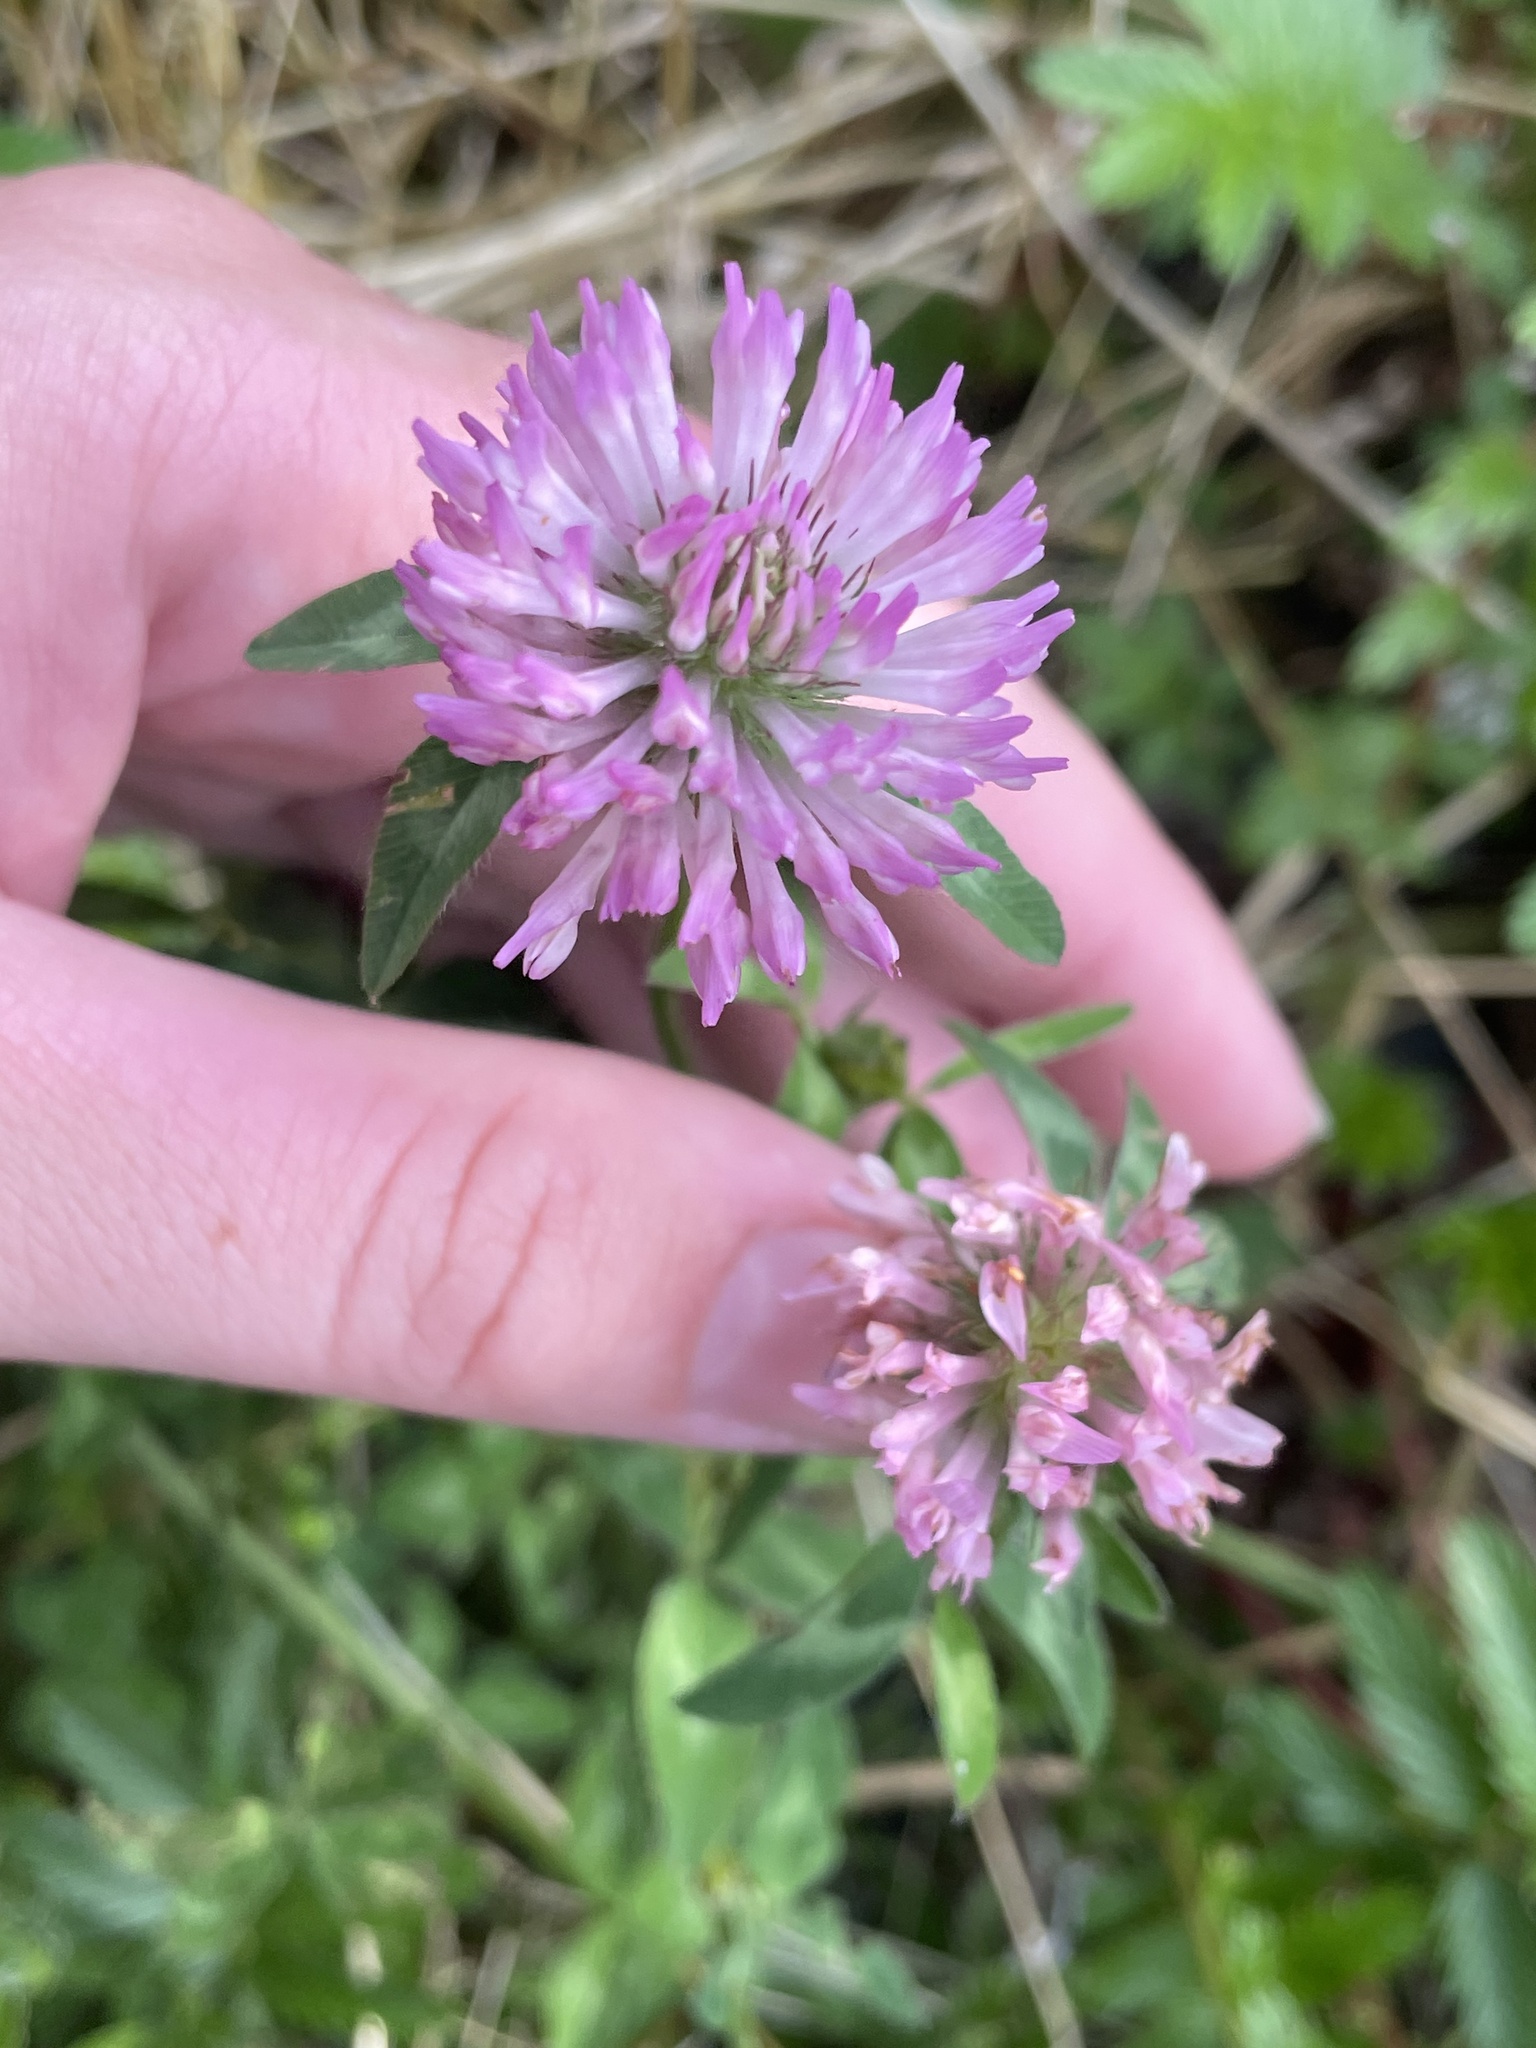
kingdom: Plantae
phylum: Tracheophyta
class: Magnoliopsida
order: Fabales
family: Fabaceae
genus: Trifolium
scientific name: Trifolium pratense
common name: Red clover
